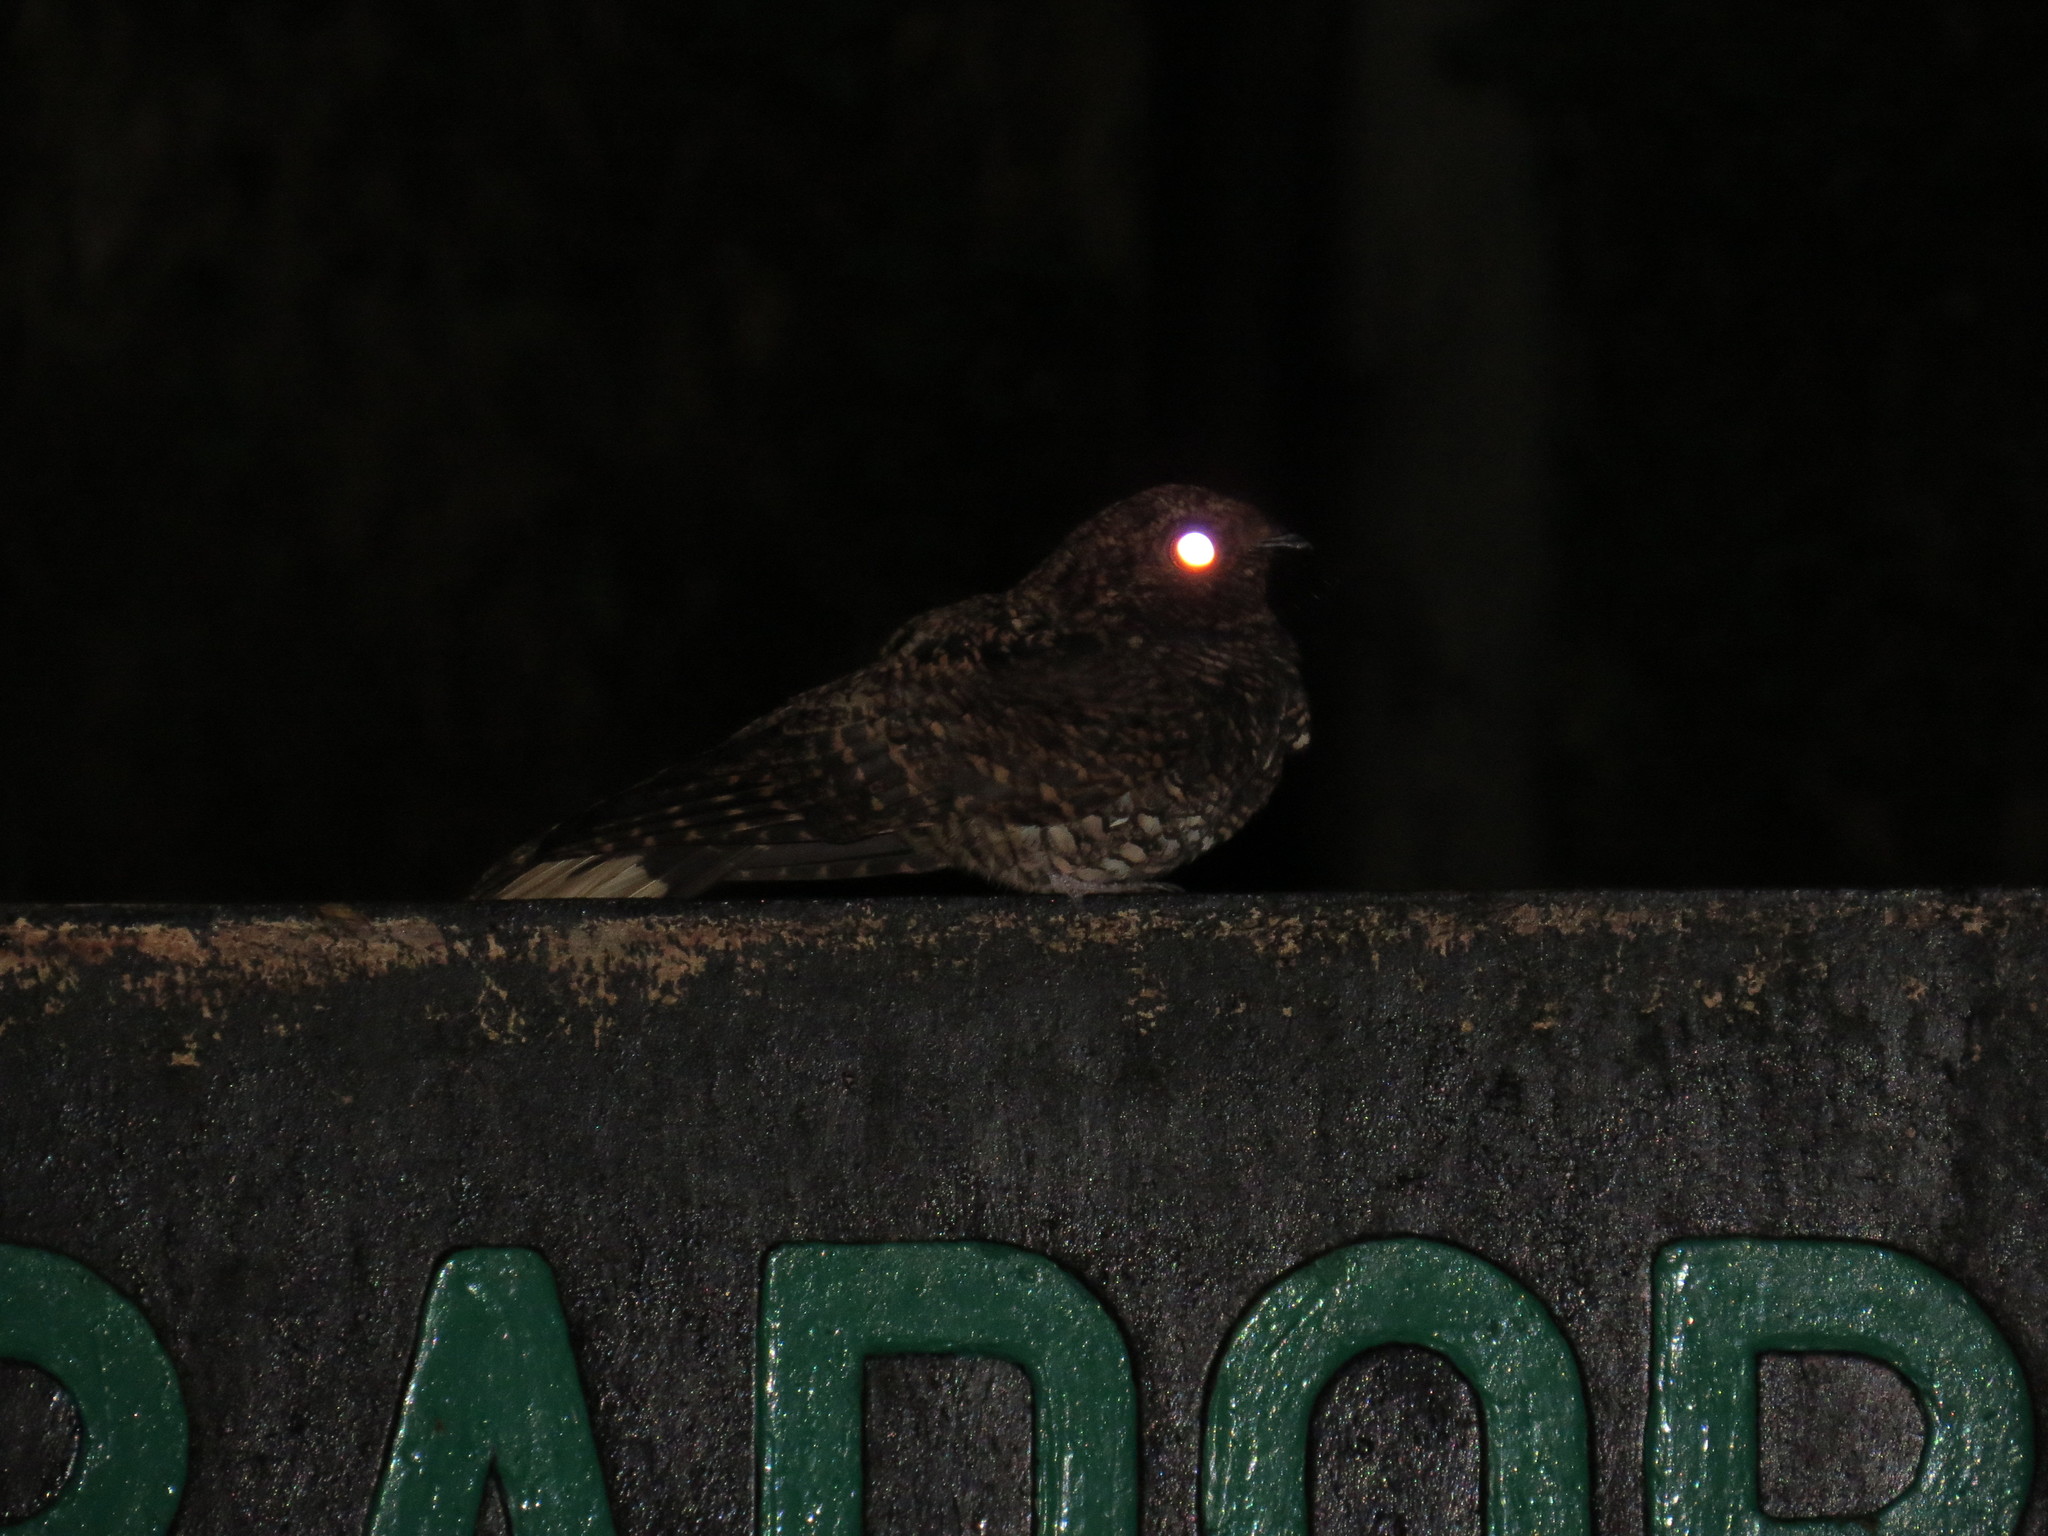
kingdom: Animalia
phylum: Chordata
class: Aves
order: Caprimulgiformes
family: Caprimulgidae
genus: Antrostomus
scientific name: Antrostomus saturatus
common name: Dusky nightjar
